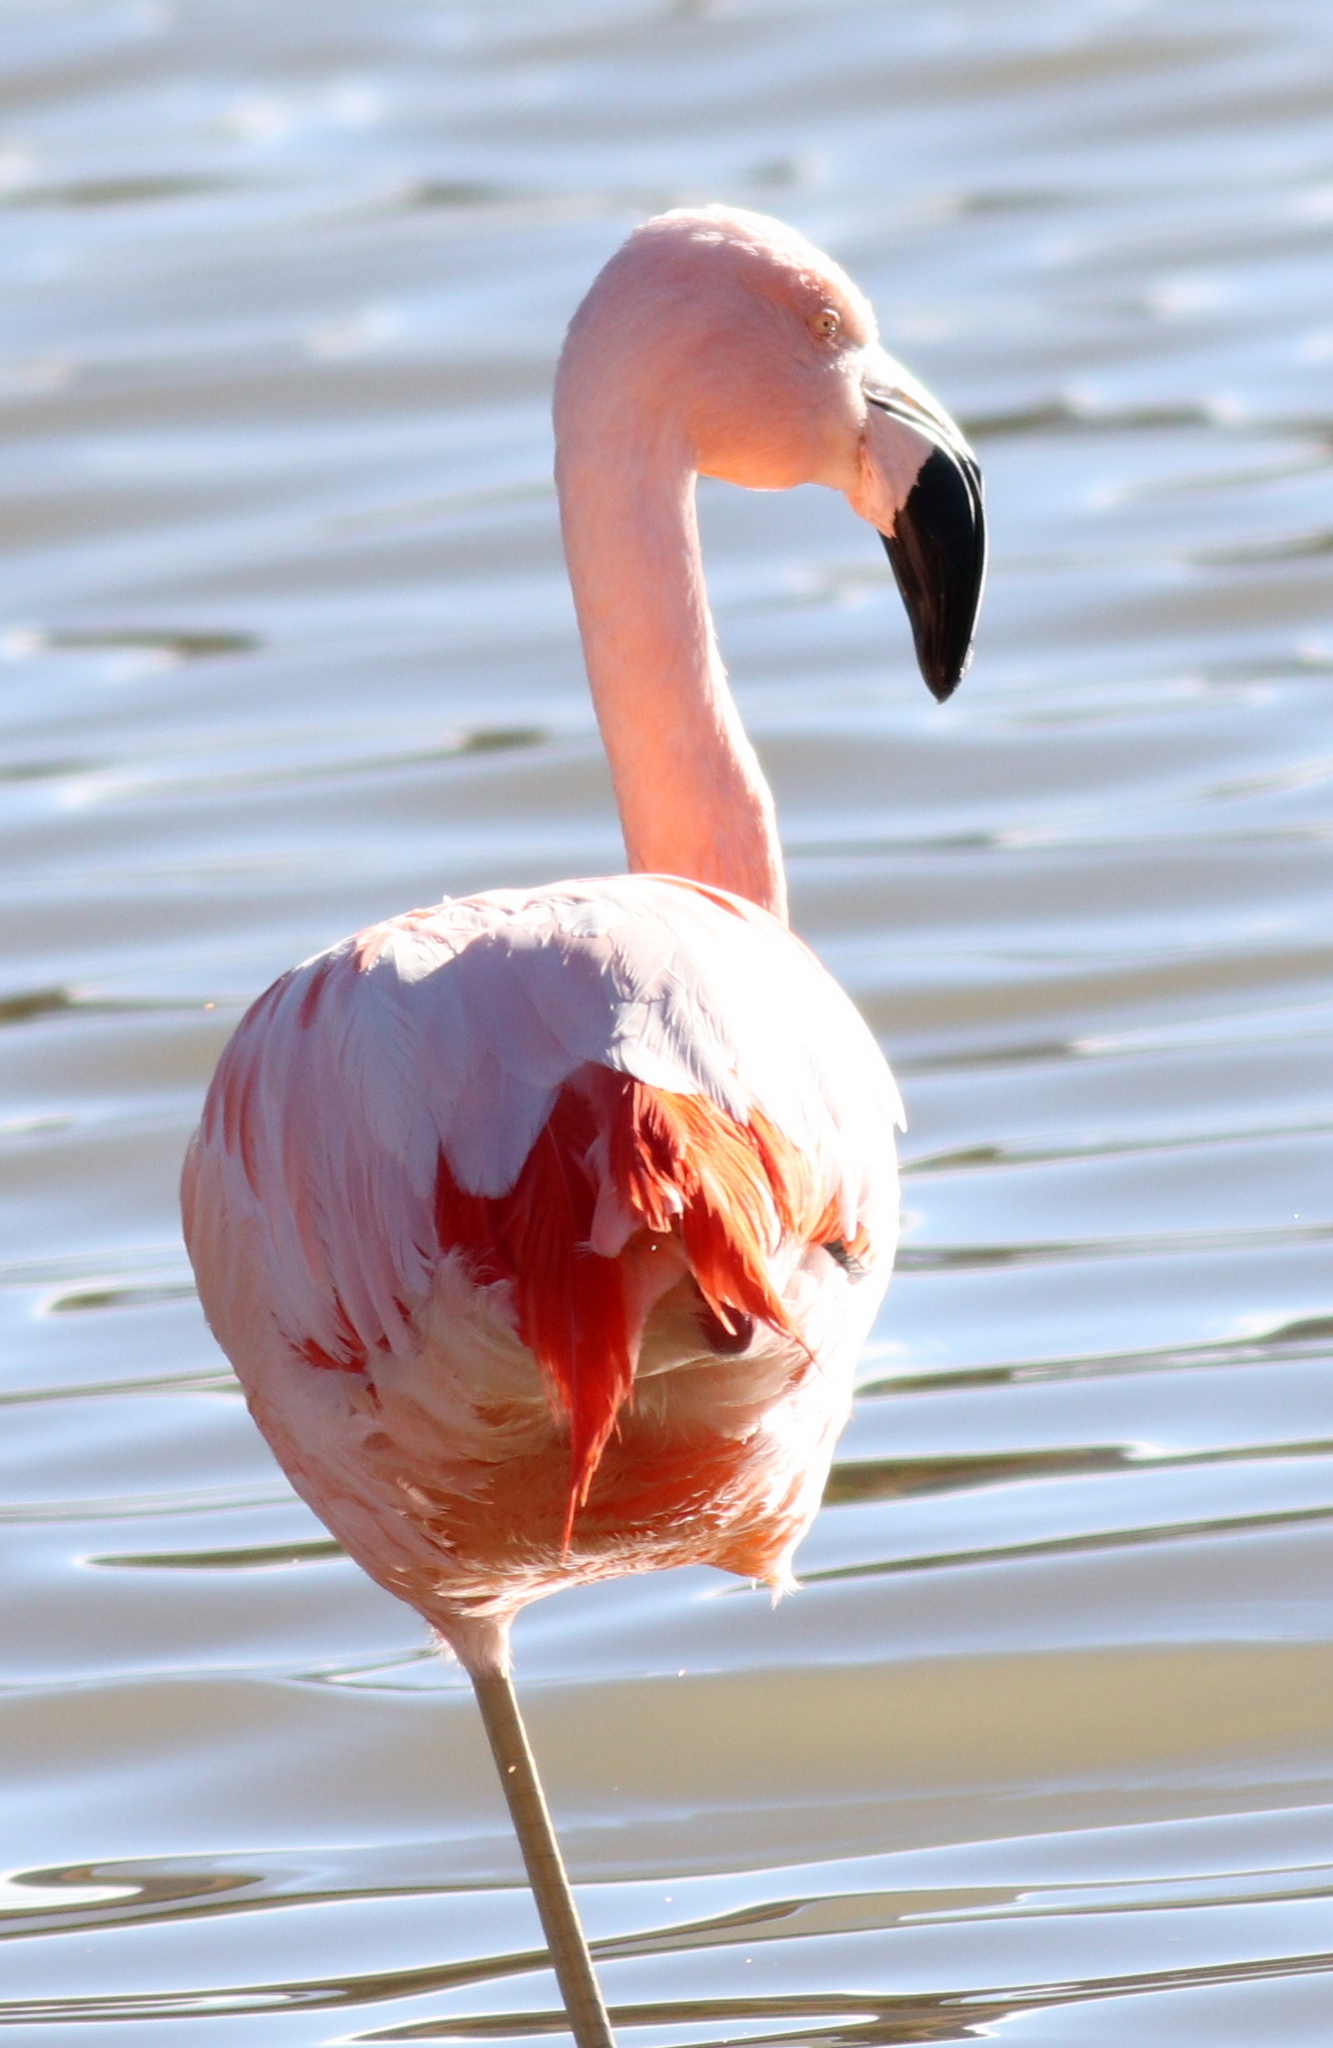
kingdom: Animalia
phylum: Chordata
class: Aves
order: Phoenicopteriformes
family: Phoenicopteridae
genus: Phoenicopterus
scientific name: Phoenicopterus chilensis
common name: Chilean flamingo
